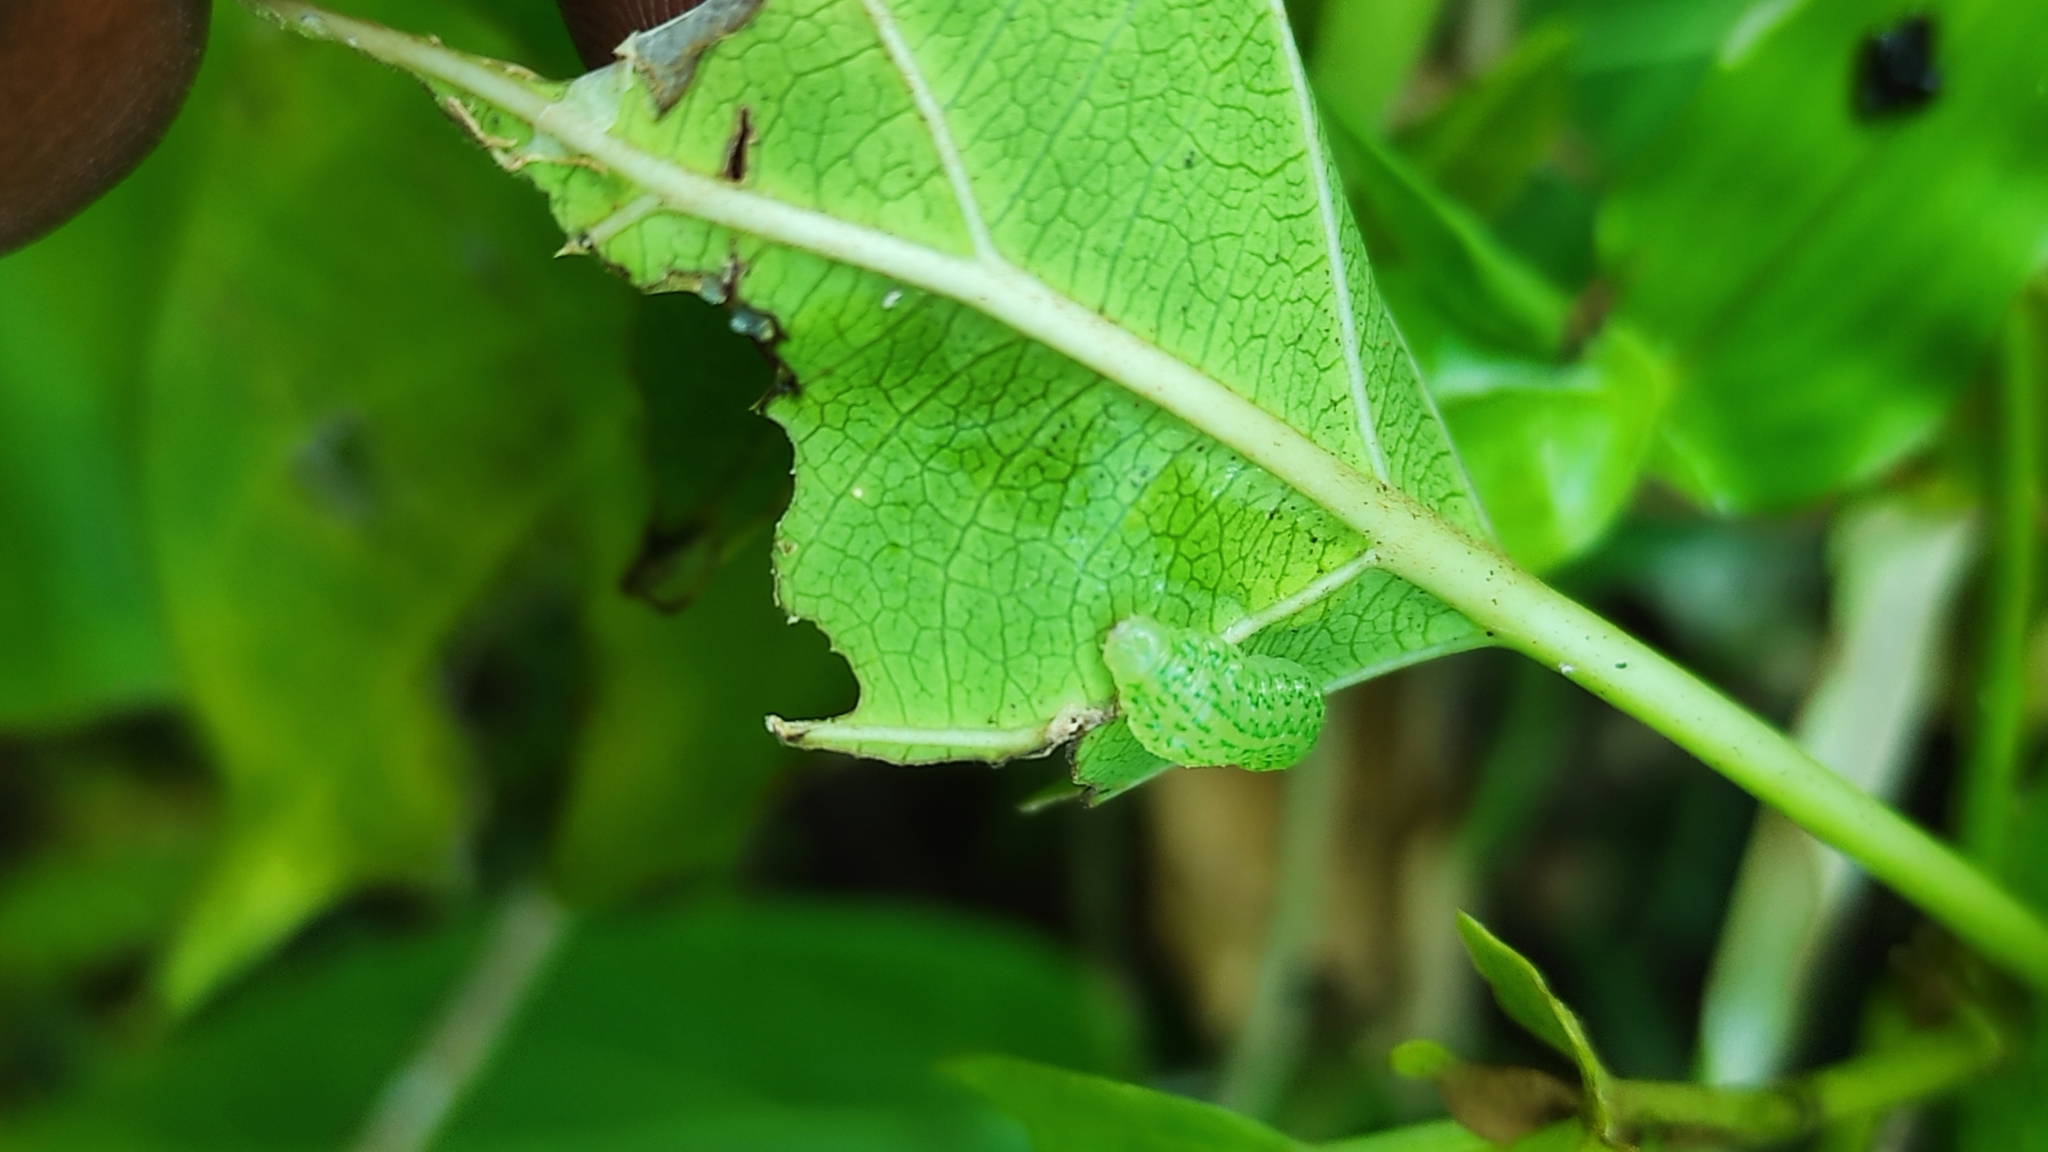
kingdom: Animalia
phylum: Arthropoda
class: Insecta
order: Lepidoptera
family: Uraniidae
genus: Micronia
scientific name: Micronia aculeata
